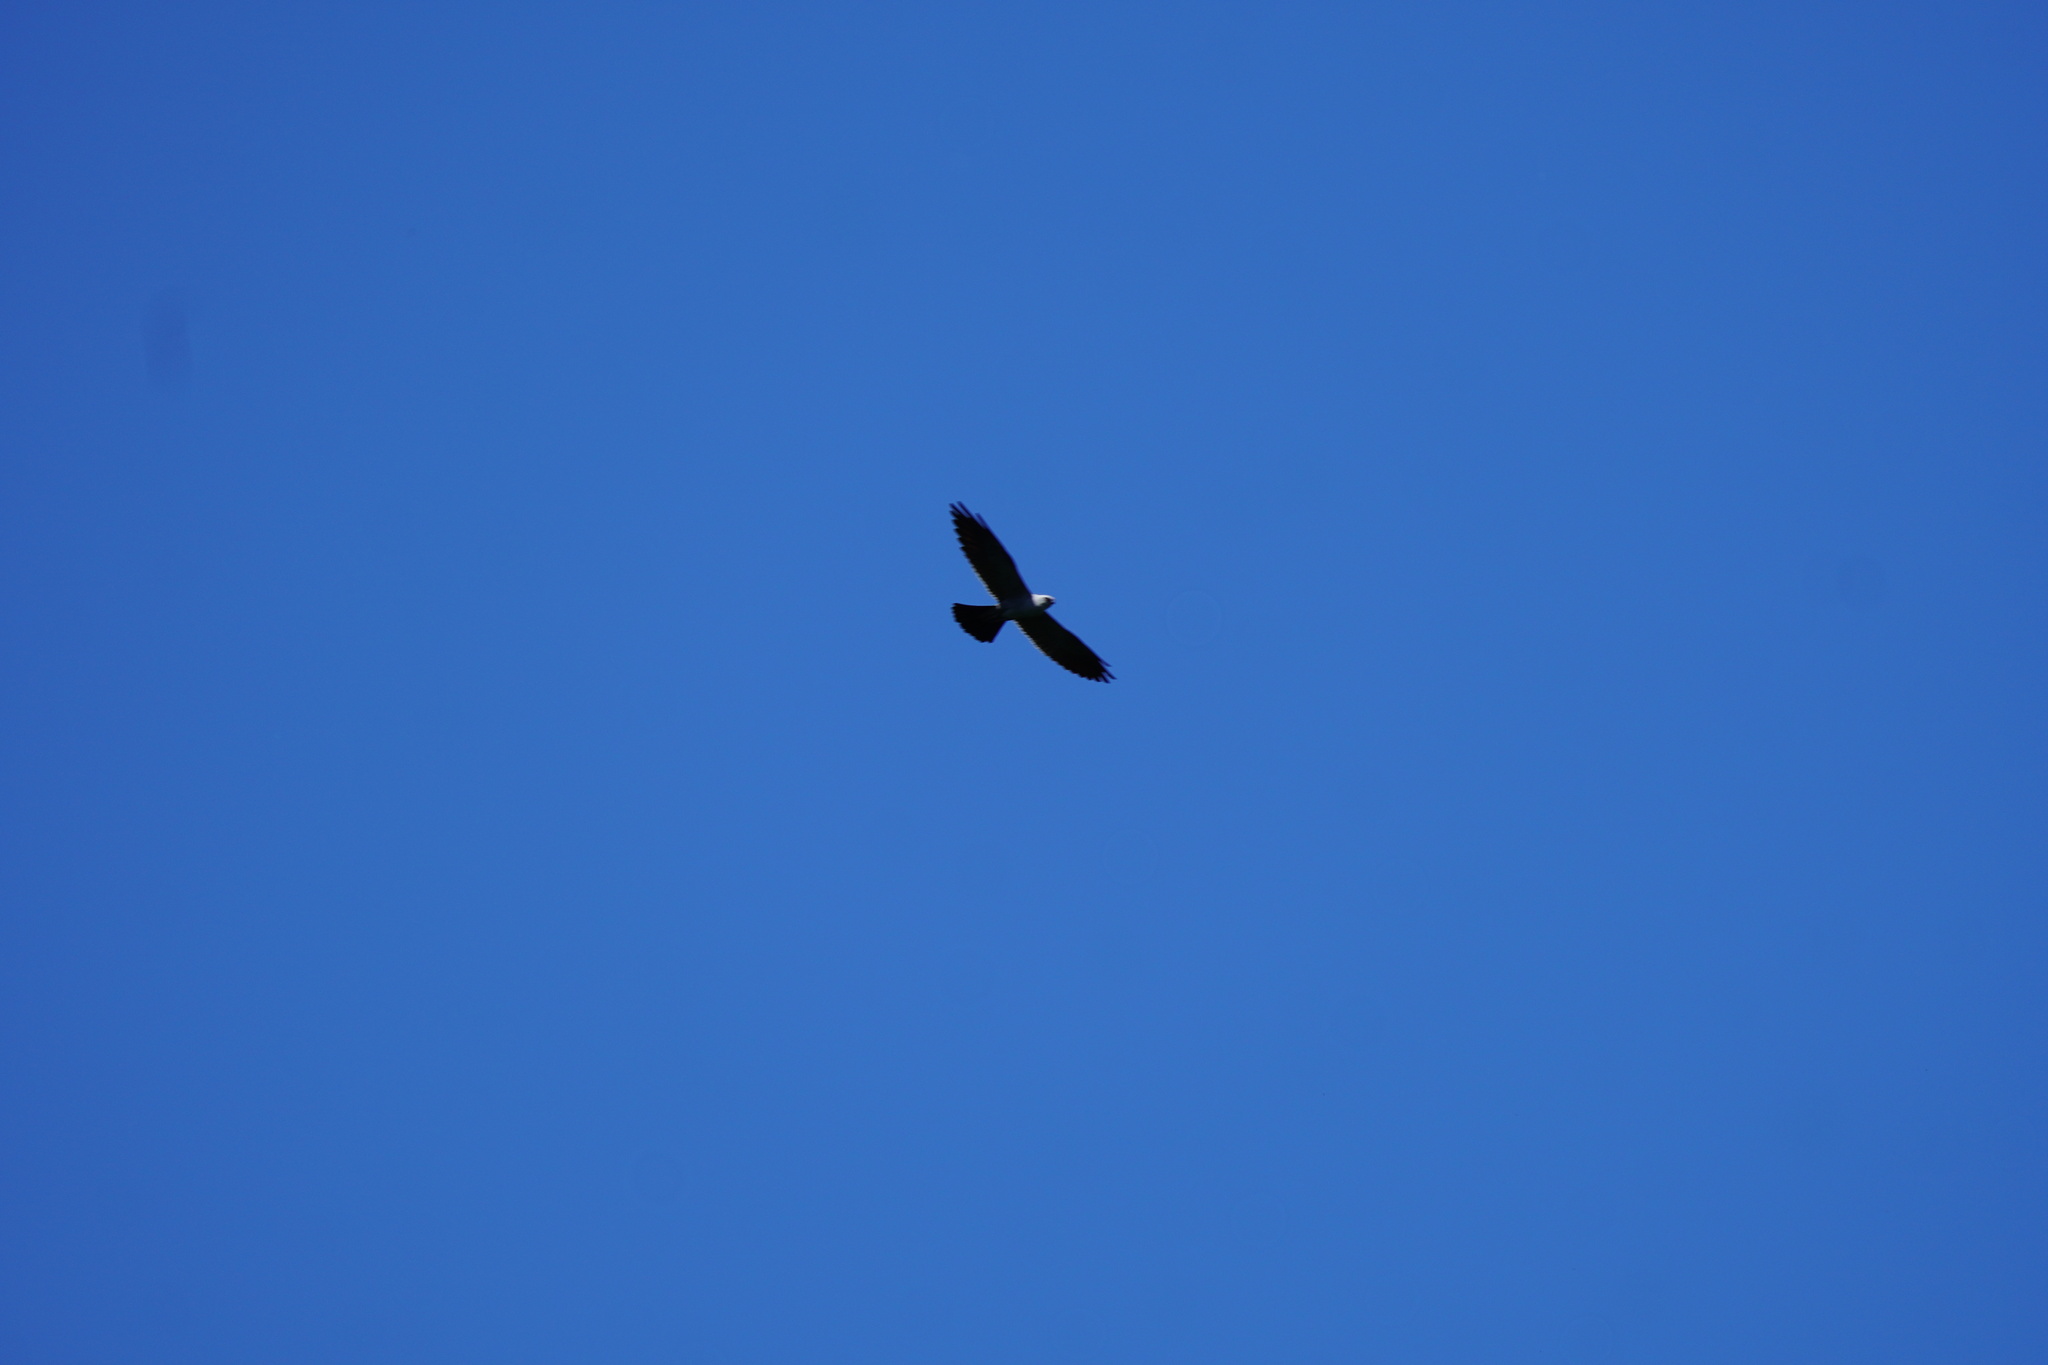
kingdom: Animalia
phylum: Chordata
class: Aves
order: Accipitriformes
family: Accipitridae
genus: Ictinia
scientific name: Ictinia mississippiensis
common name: Mississippi kite
